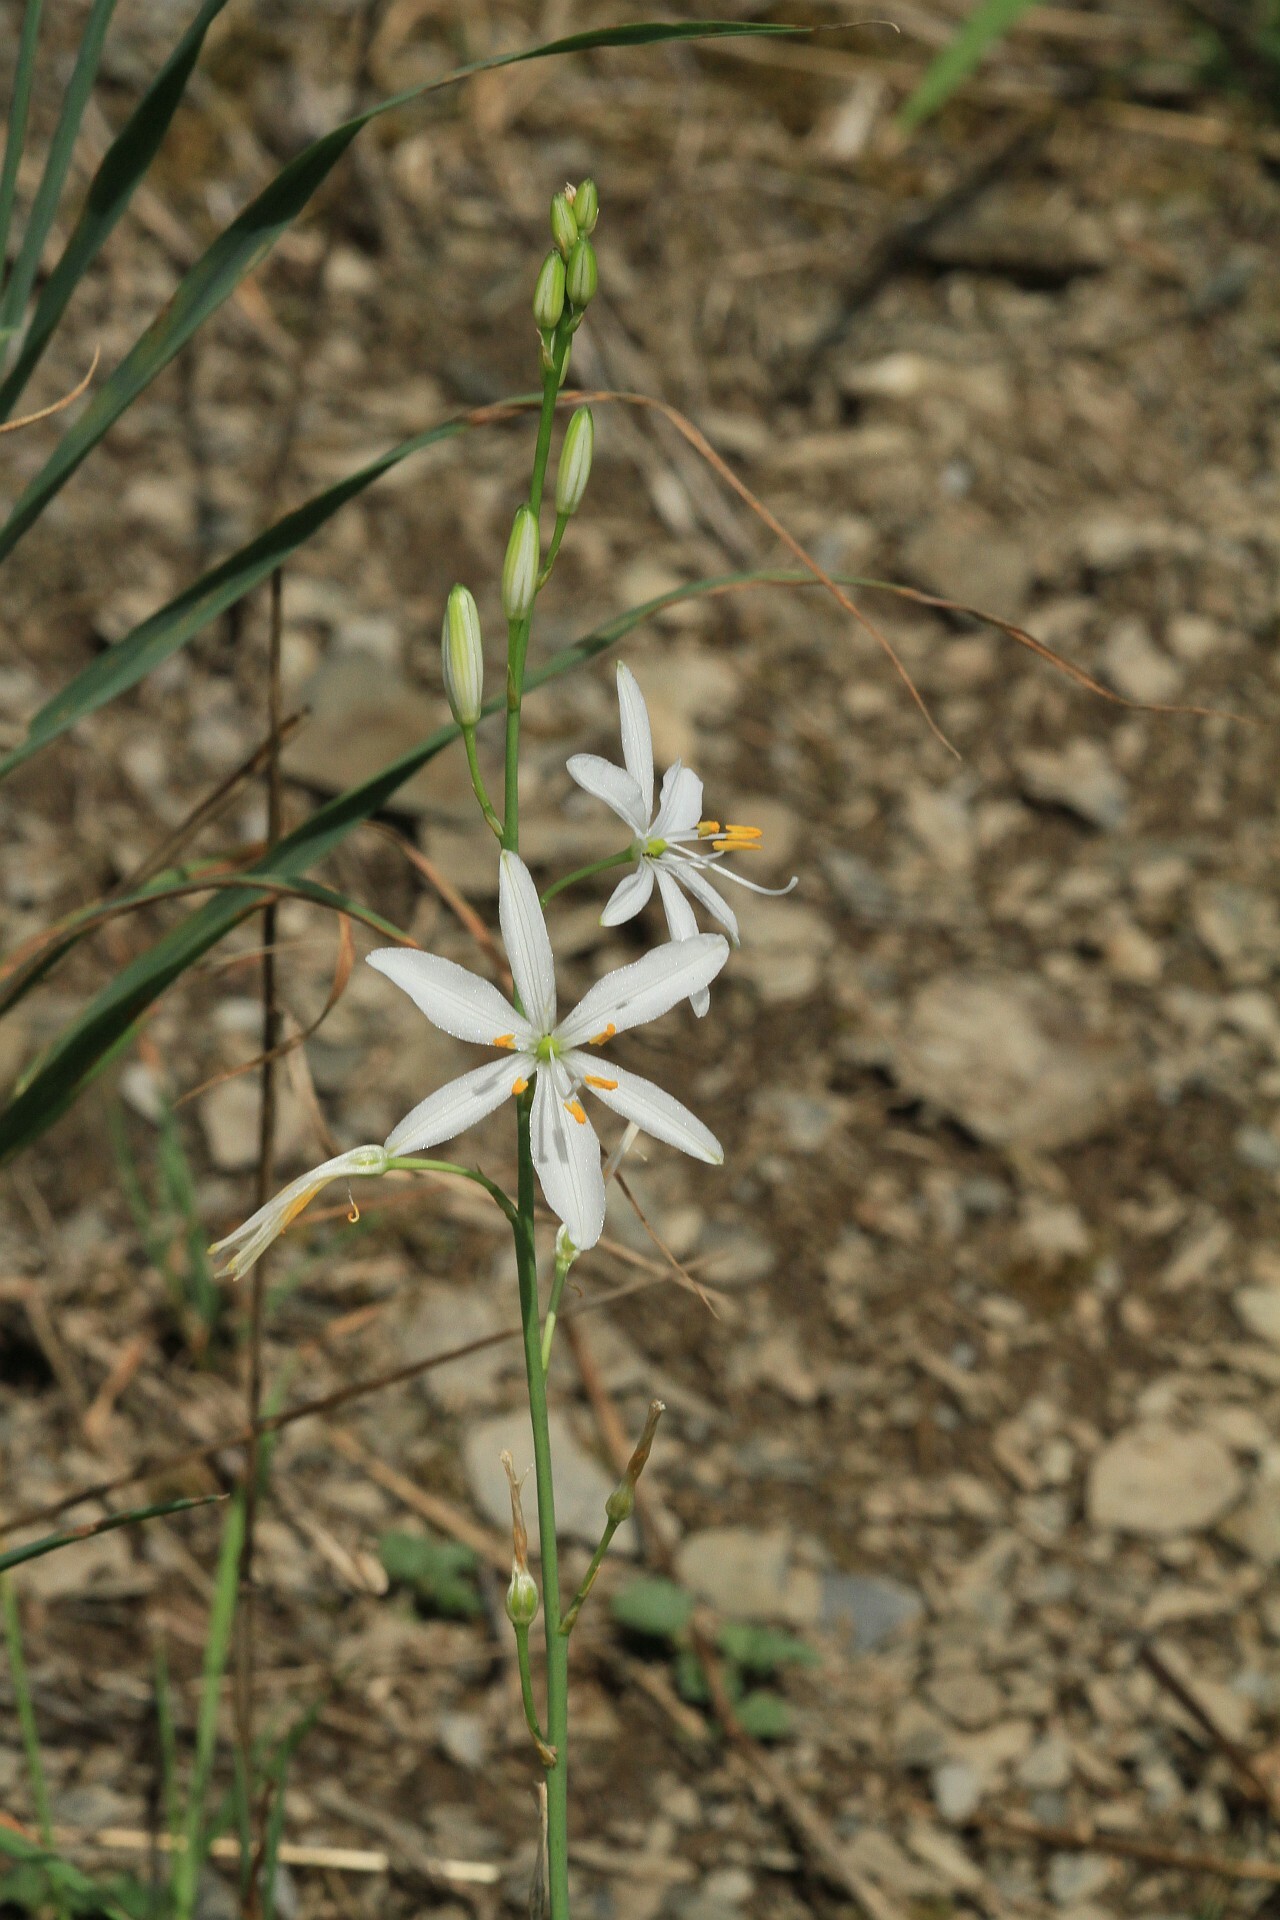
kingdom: Plantae
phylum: Tracheophyta
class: Liliopsida
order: Asparagales
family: Asparagaceae
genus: Anthericum
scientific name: Anthericum liliago
